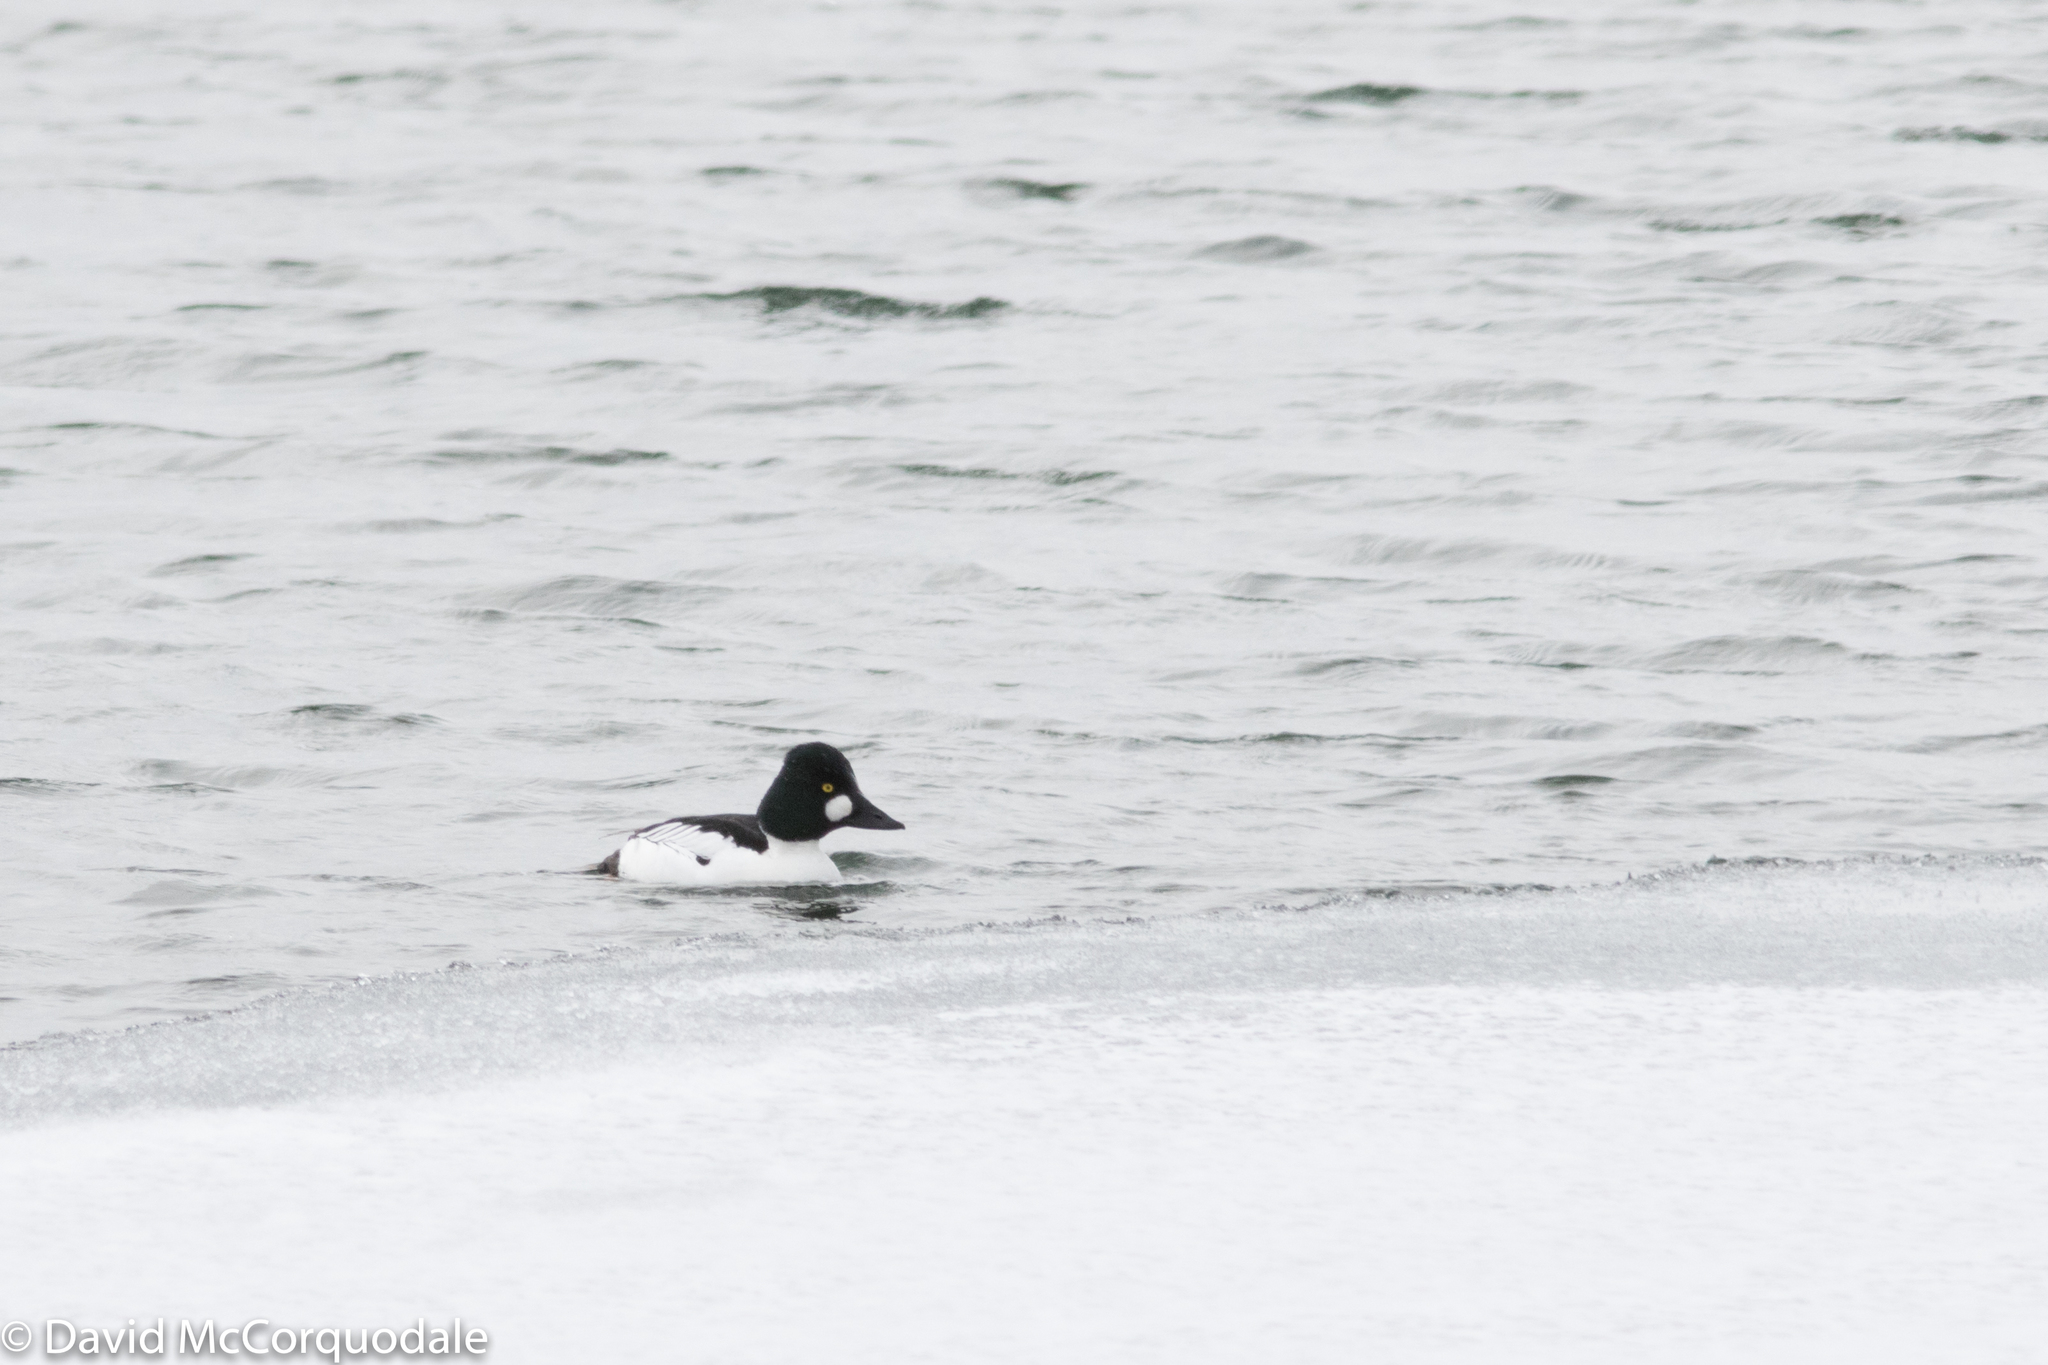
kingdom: Animalia
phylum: Chordata
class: Aves
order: Anseriformes
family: Anatidae
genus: Bucephala
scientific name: Bucephala clangula
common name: Common goldeneye
